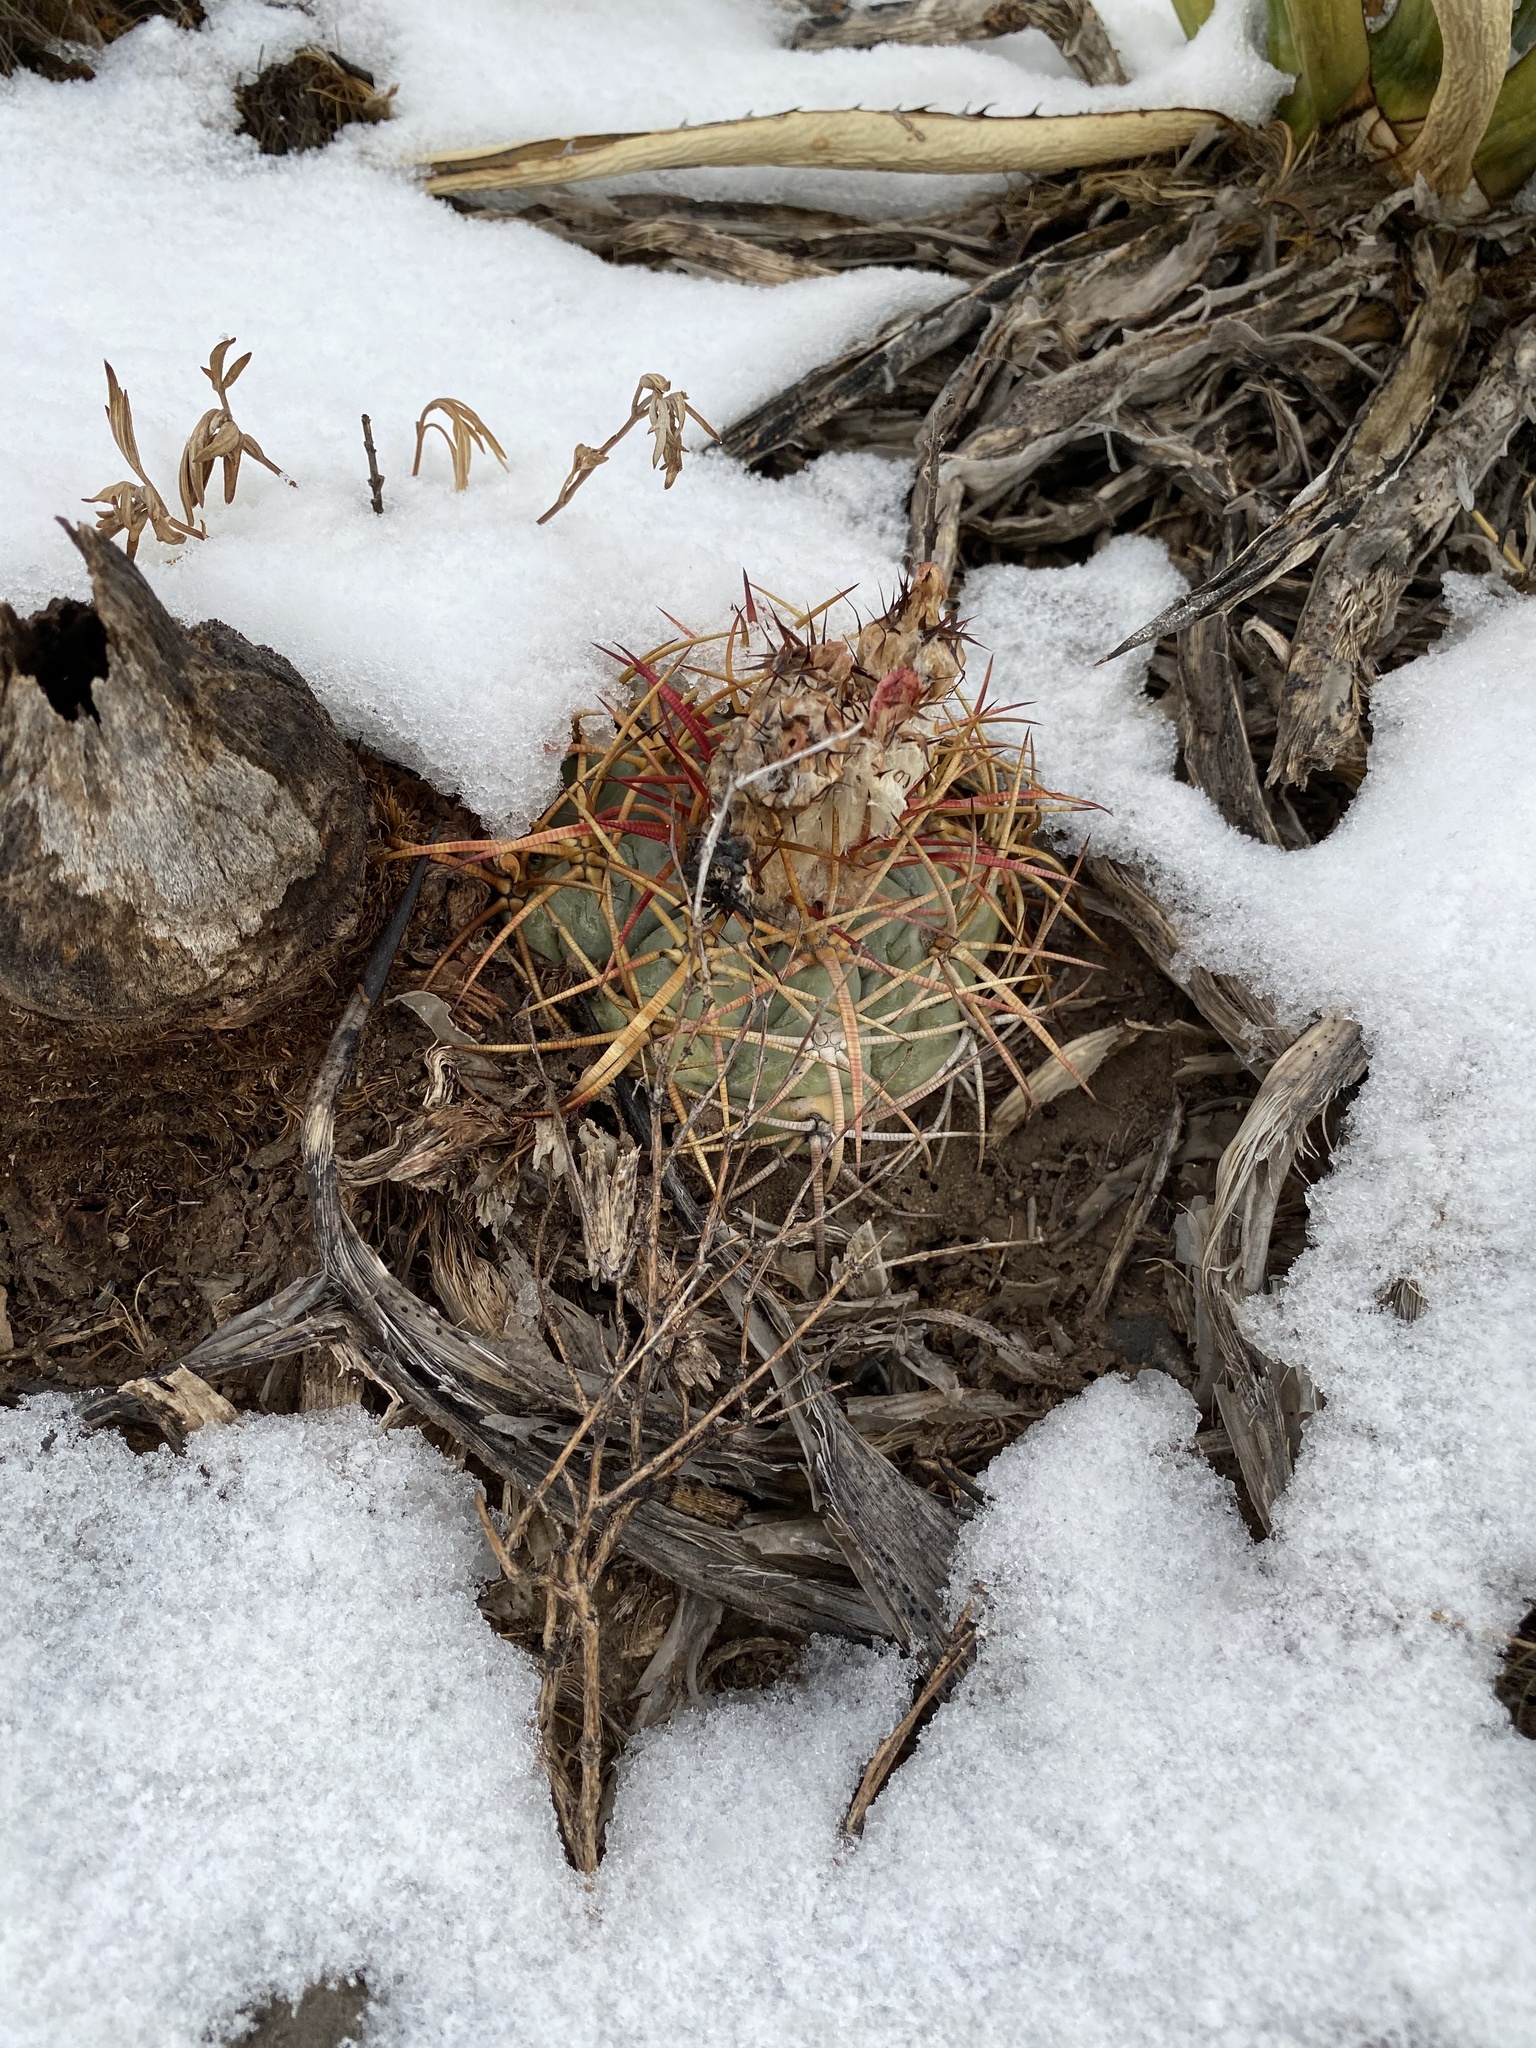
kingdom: Plantae
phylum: Tracheophyta
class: Magnoliopsida
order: Caryophyllales
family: Cactaceae
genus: Echinocactus
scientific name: Echinocactus horizonthalonius
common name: Devilshead
